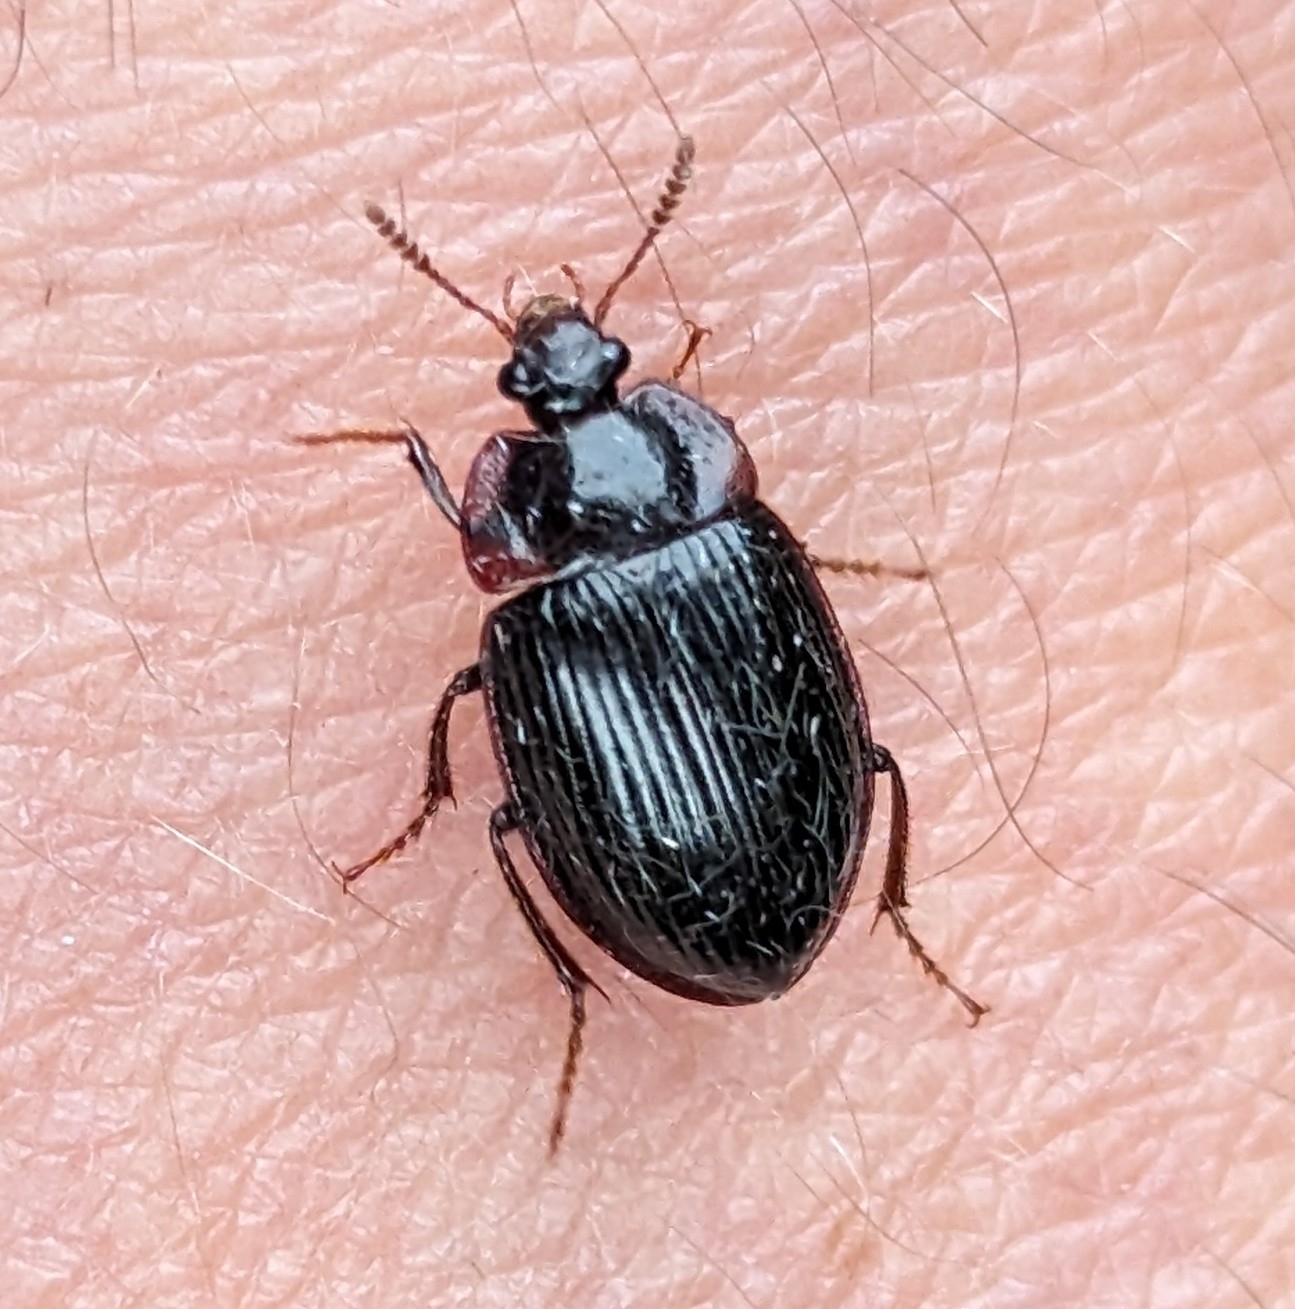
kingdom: Animalia
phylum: Arthropoda
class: Insecta
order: Coleoptera
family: Agyrtidae
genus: Necrophilus
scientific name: Necrophilus hydrophiloides
